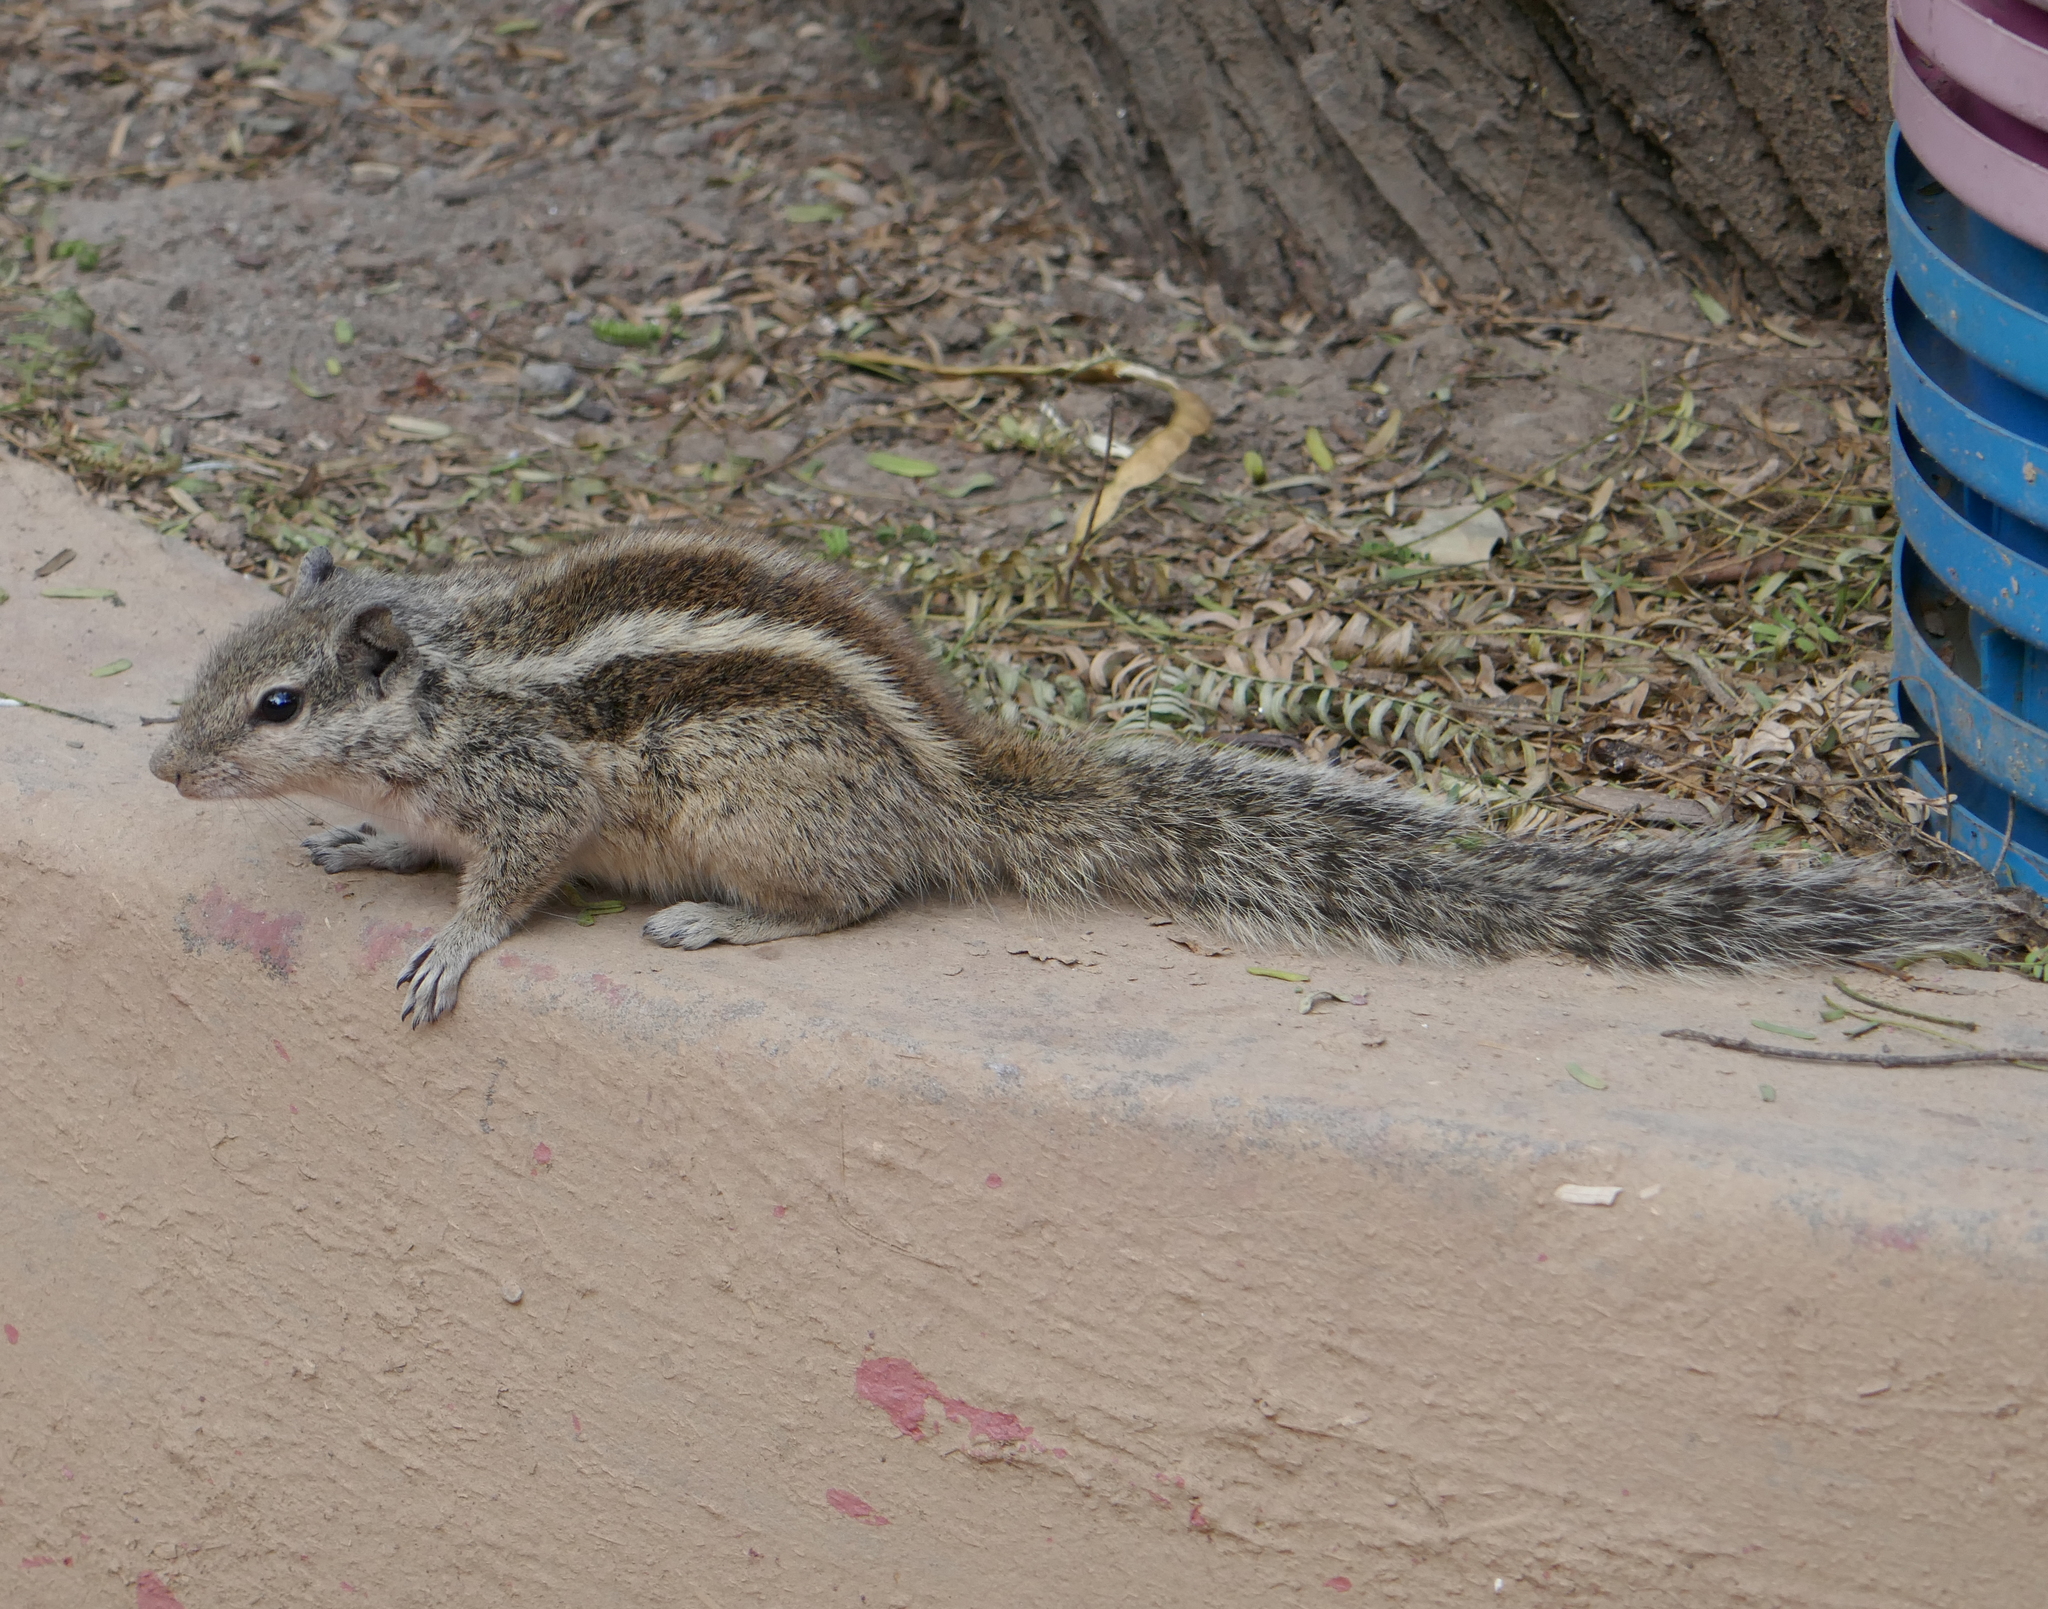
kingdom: Animalia
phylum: Chordata
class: Mammalia
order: Rodentia
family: Sciuridae
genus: Funambulus
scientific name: Funambulus pennantii
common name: Northern palm squirrel
